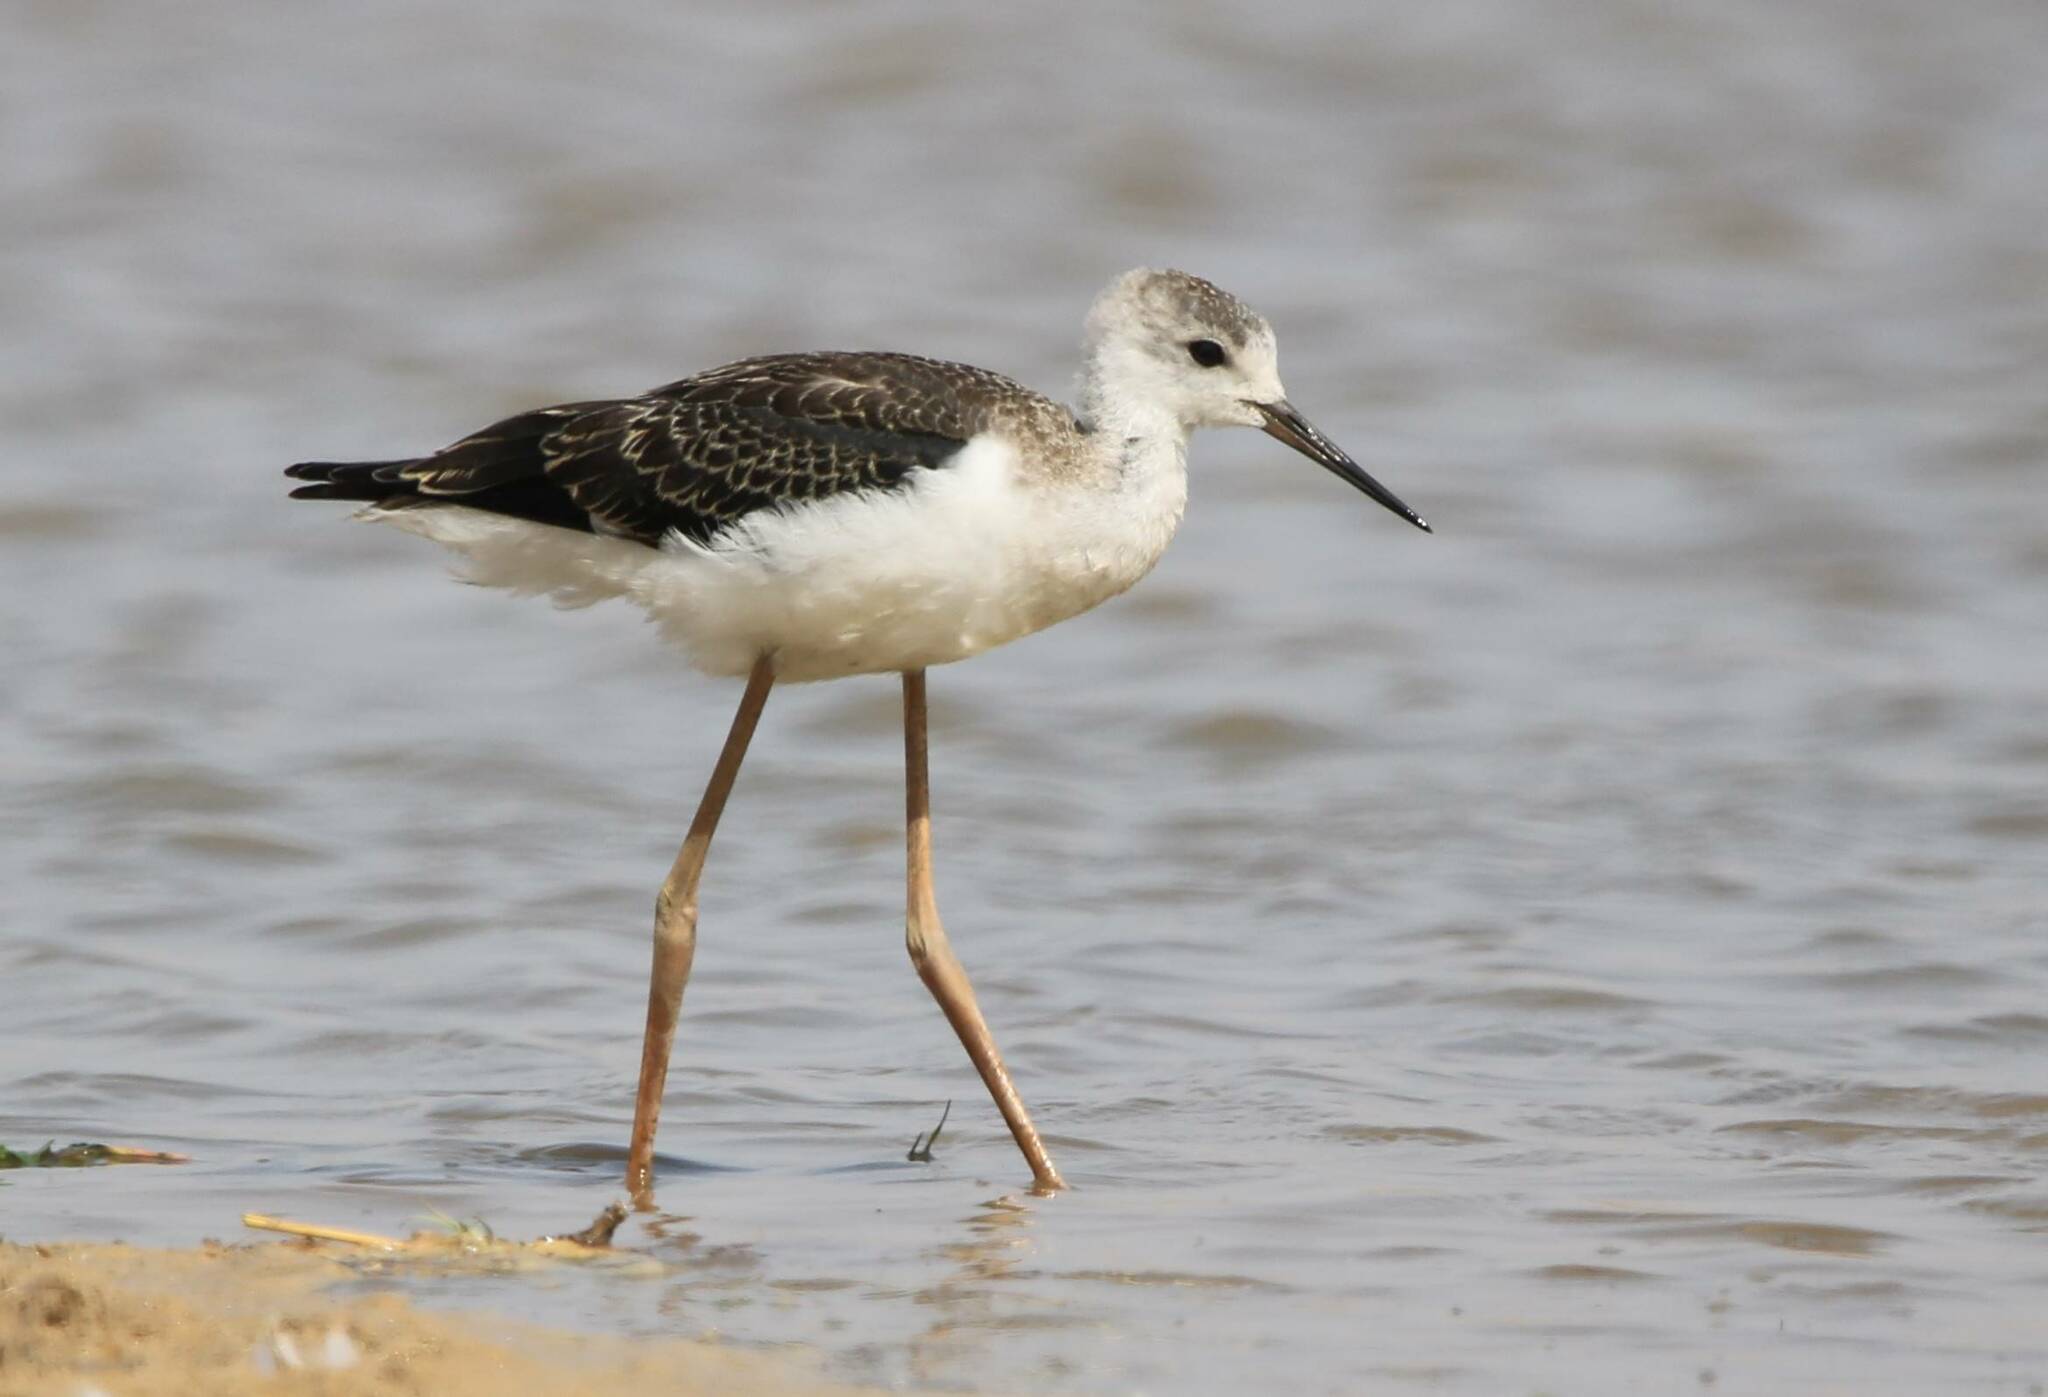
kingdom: Animalia
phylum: Chordata
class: Aves
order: Charadriiformes
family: Recurvirostridae
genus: Himantopus
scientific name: Himantopus himantopus
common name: Black-winged stilt
